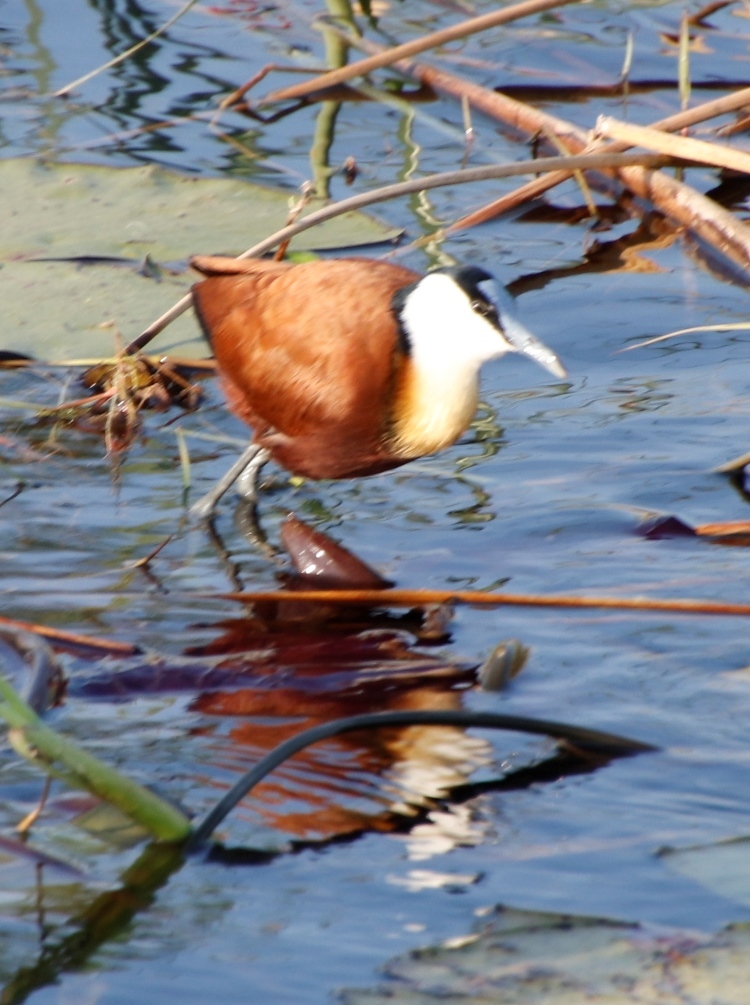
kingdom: Animalia
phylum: Chordata
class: Aves
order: Charadriiformes
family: Jacanidae
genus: Actophilornis
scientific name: Actophilornis africanus
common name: African jacana
